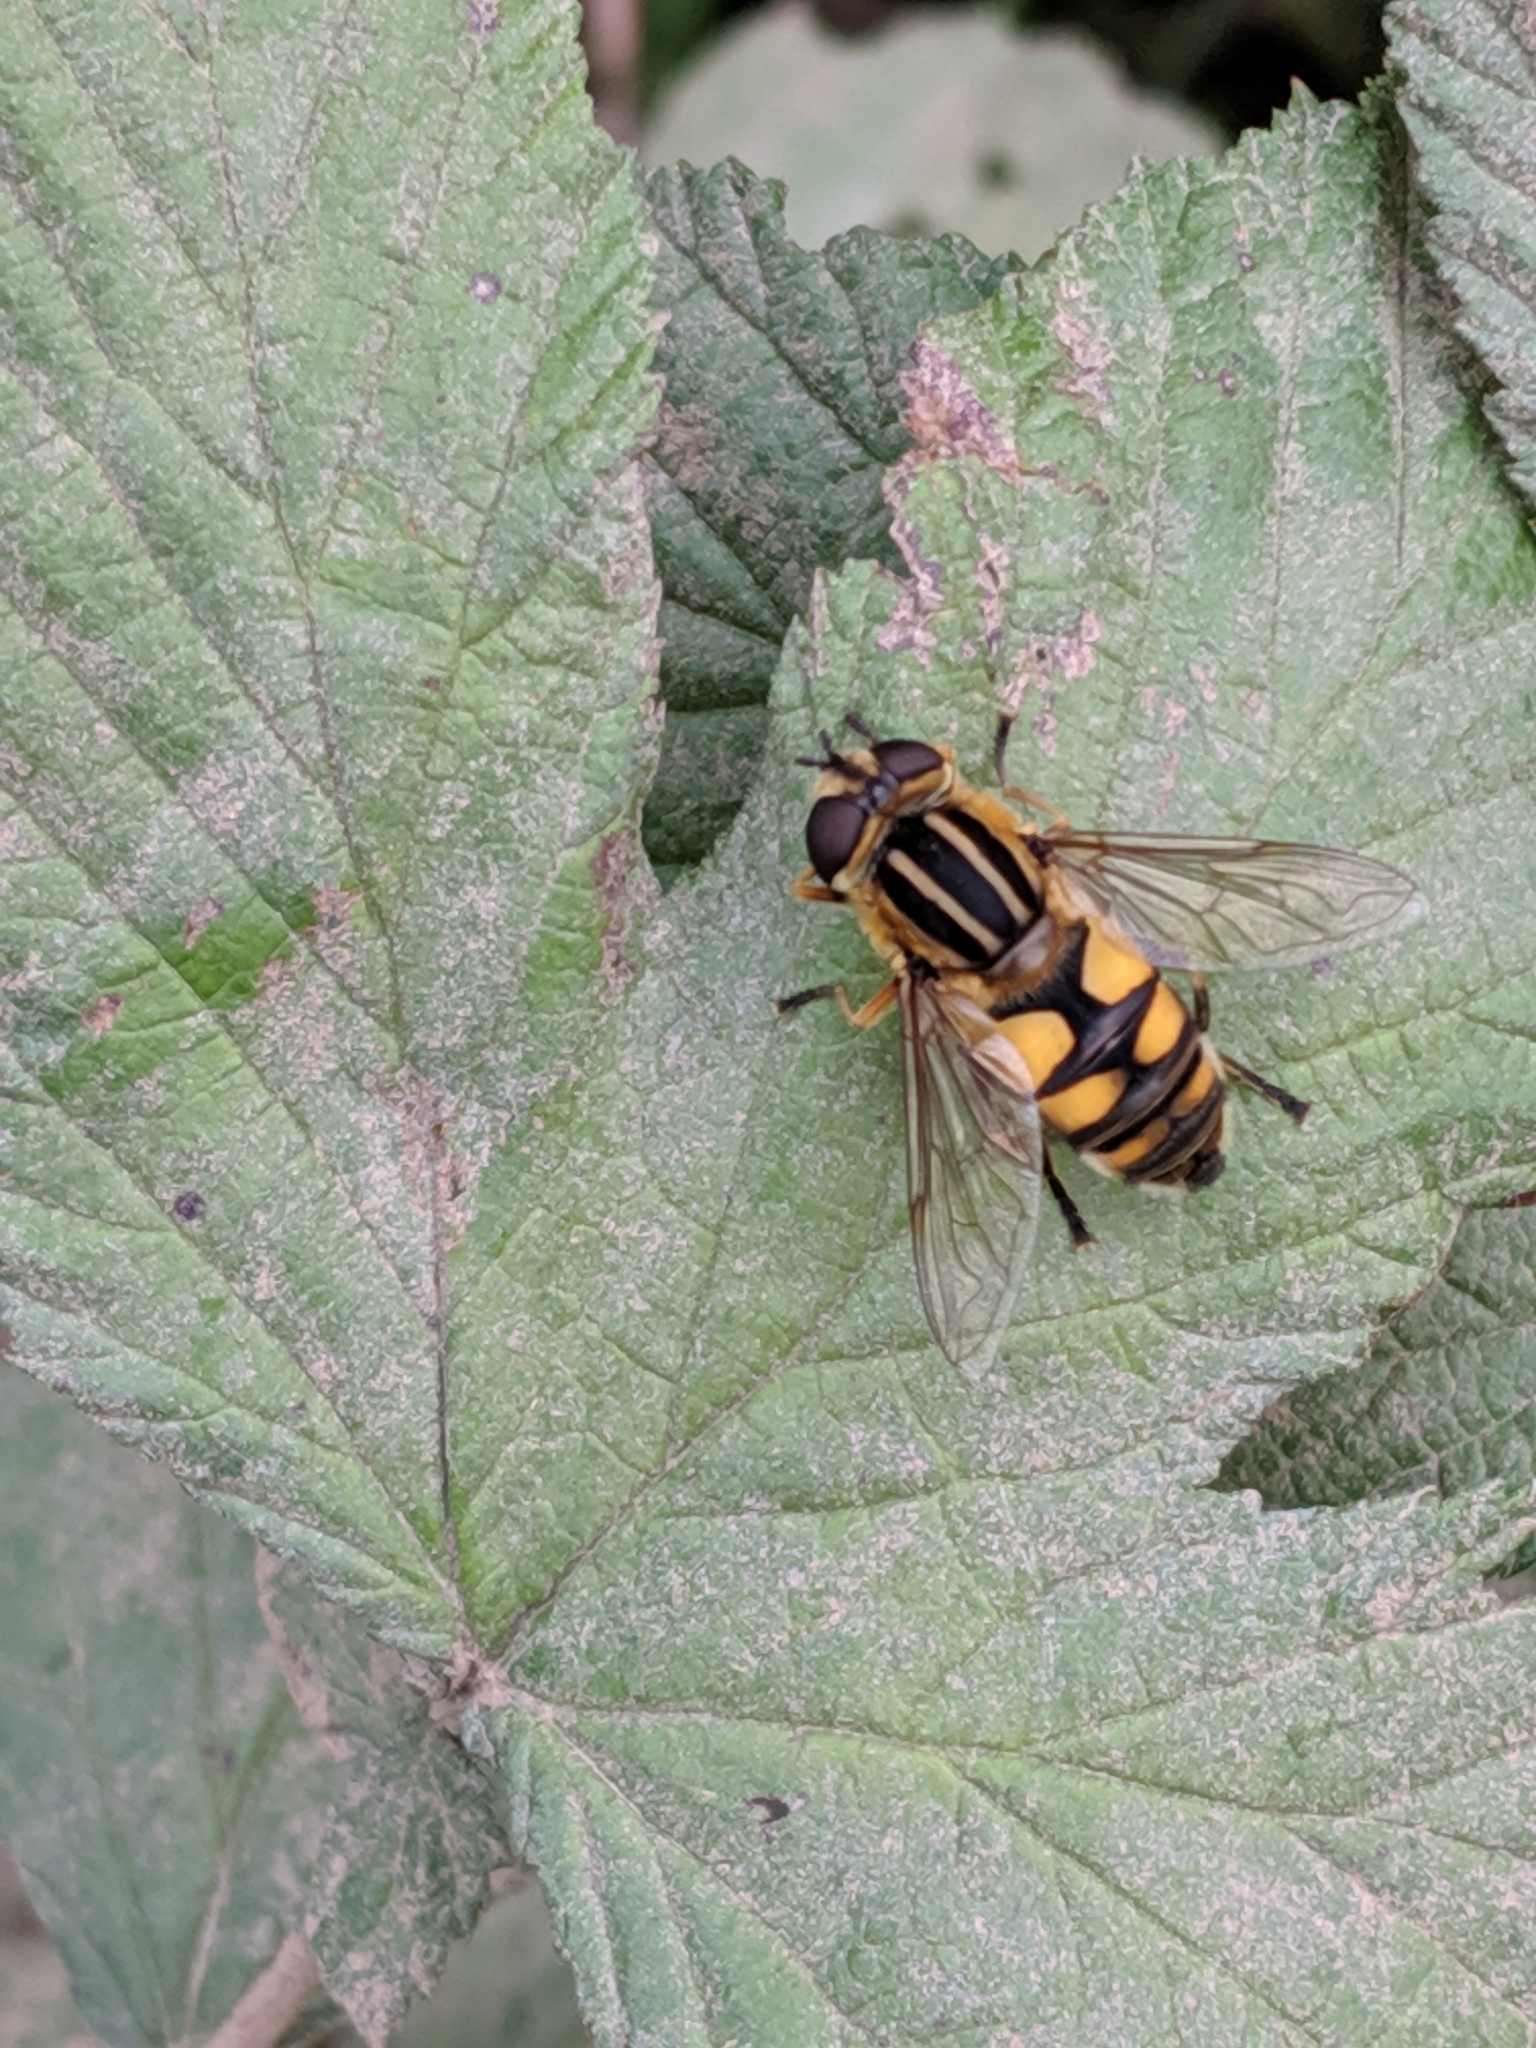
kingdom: Animalia
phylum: Arthropoda
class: Insecta
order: Diptera
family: Syrphidae
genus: Helophilus
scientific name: Helophilus hybridus
